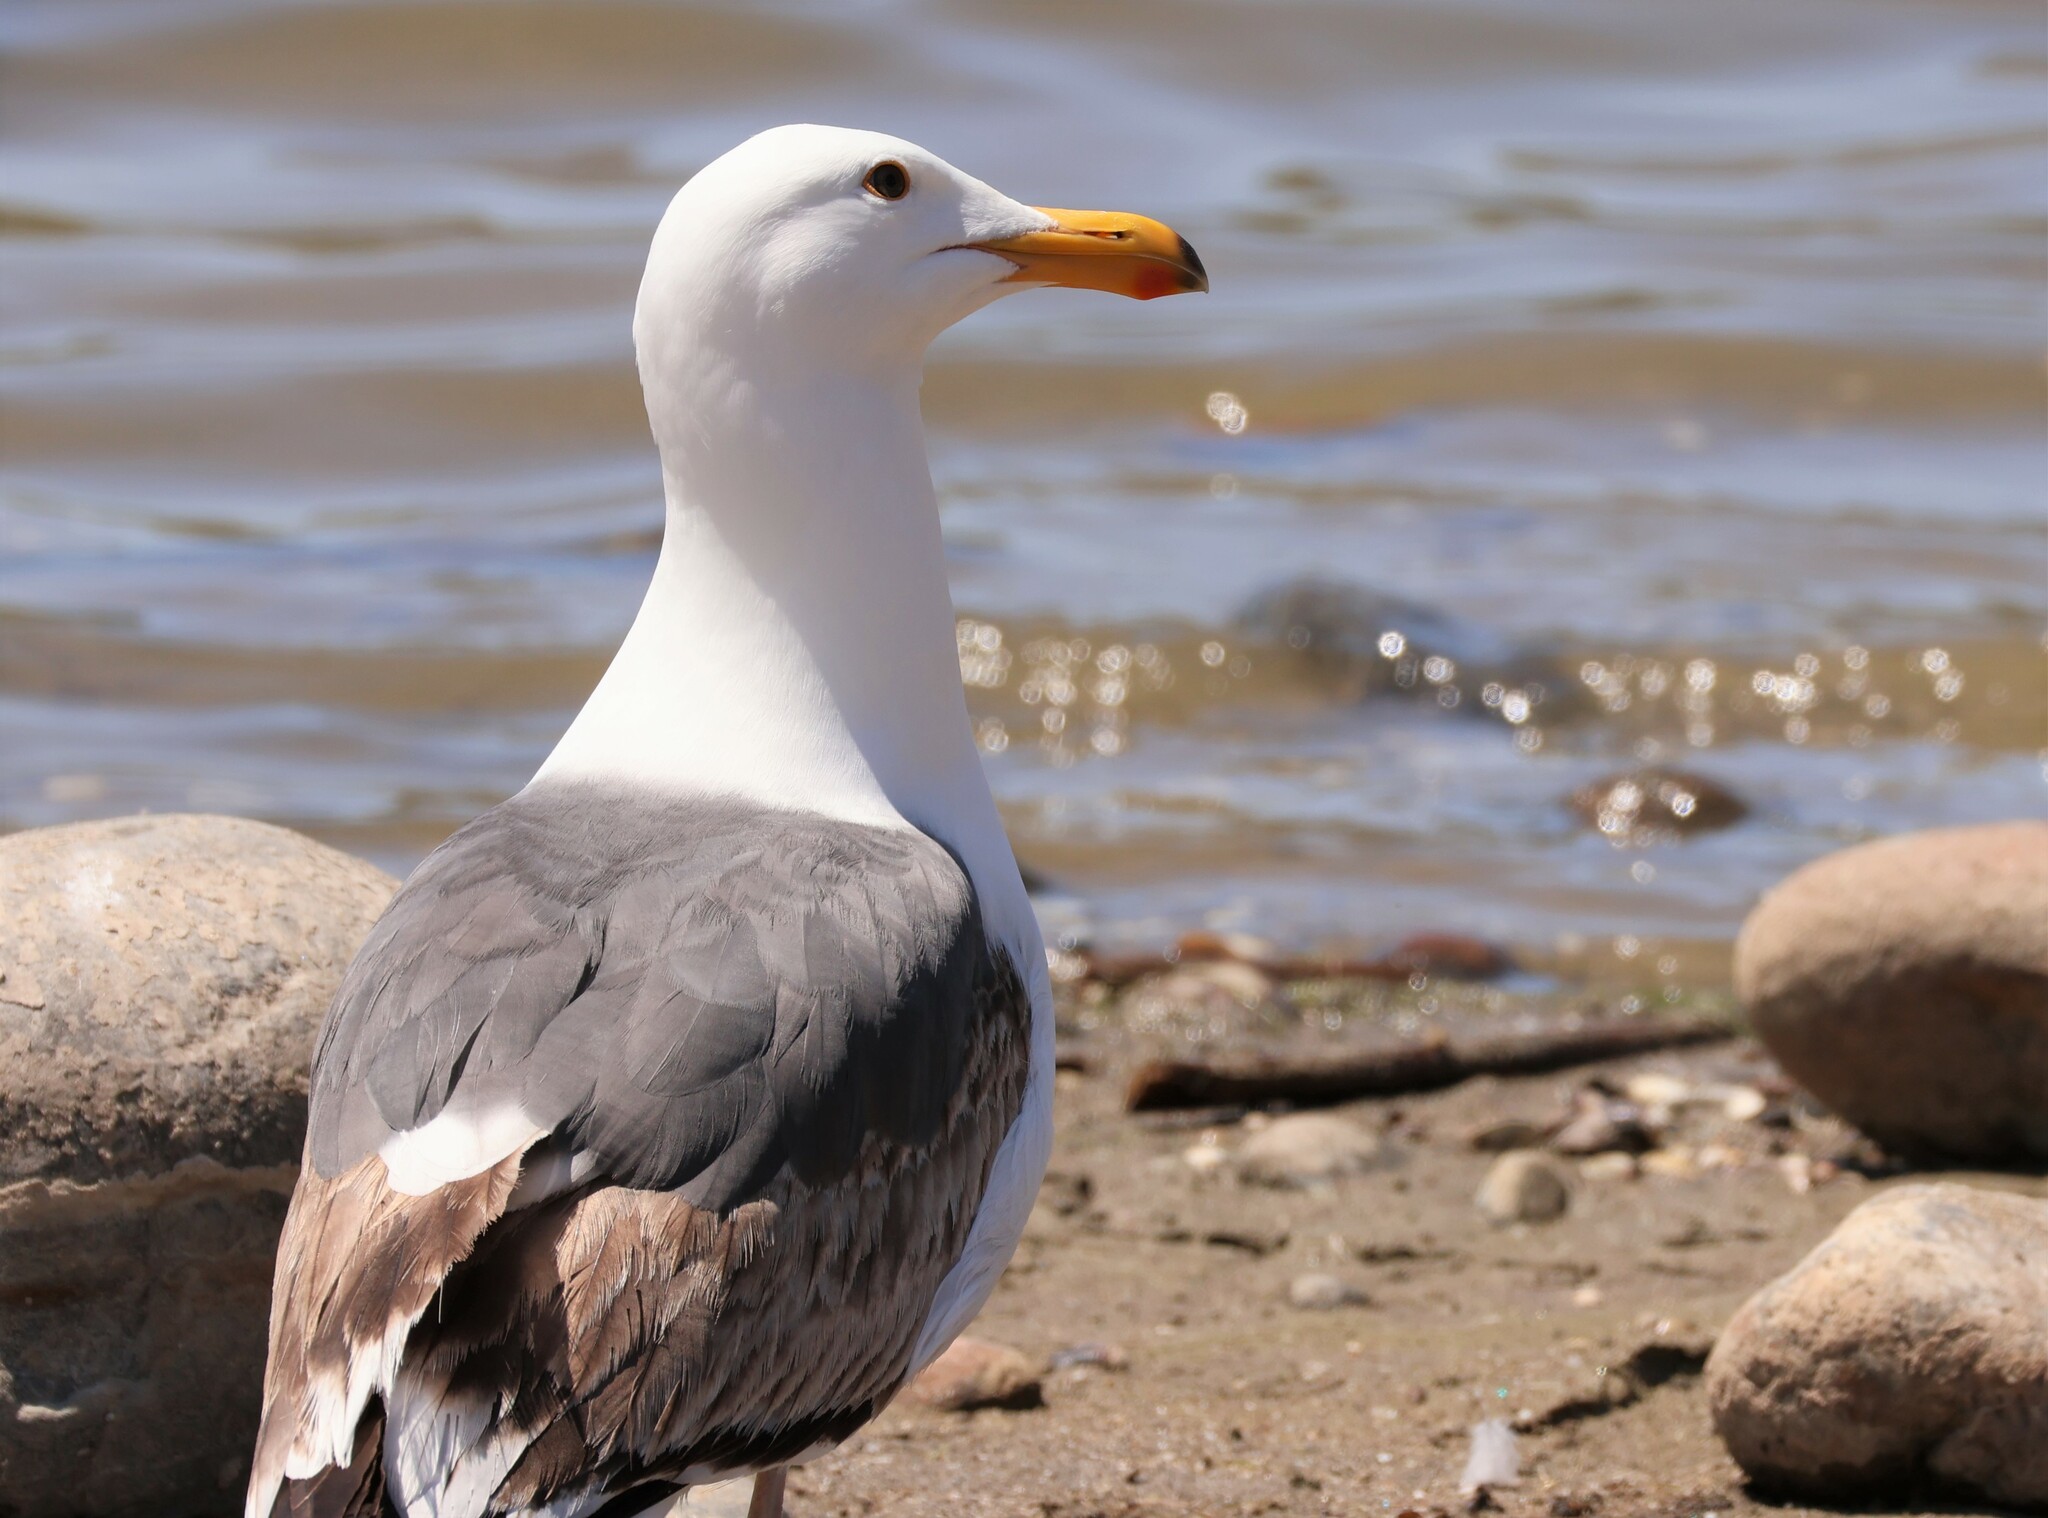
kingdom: Animalia
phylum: Chordata
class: Aves
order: Charadriiformes
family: Laridae
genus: Larus
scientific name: Larus occidentalis
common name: Western gull
